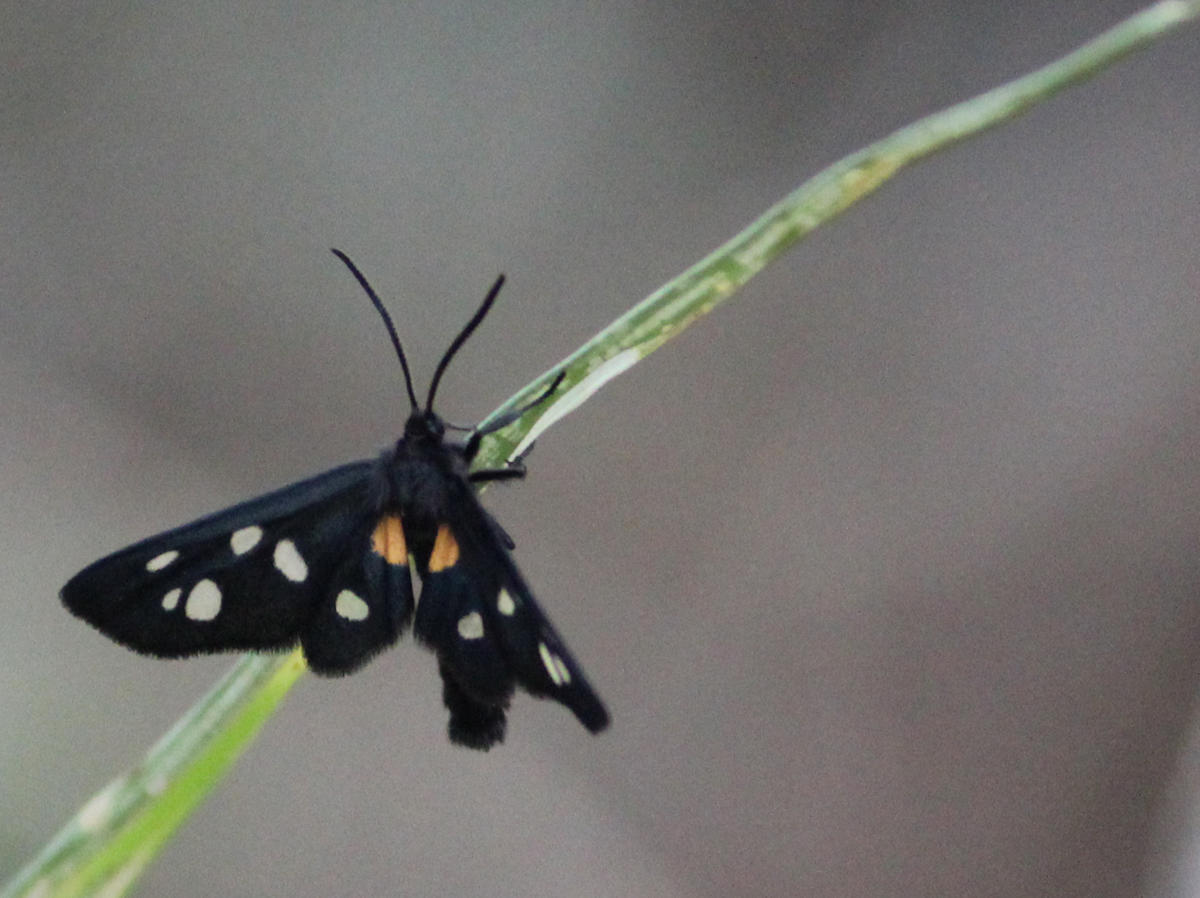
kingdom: Animalia
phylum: Arthropoda
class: Insecta
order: Lepidoptera
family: Erebidae
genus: Amata
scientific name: Amata Asinusca atricornis
